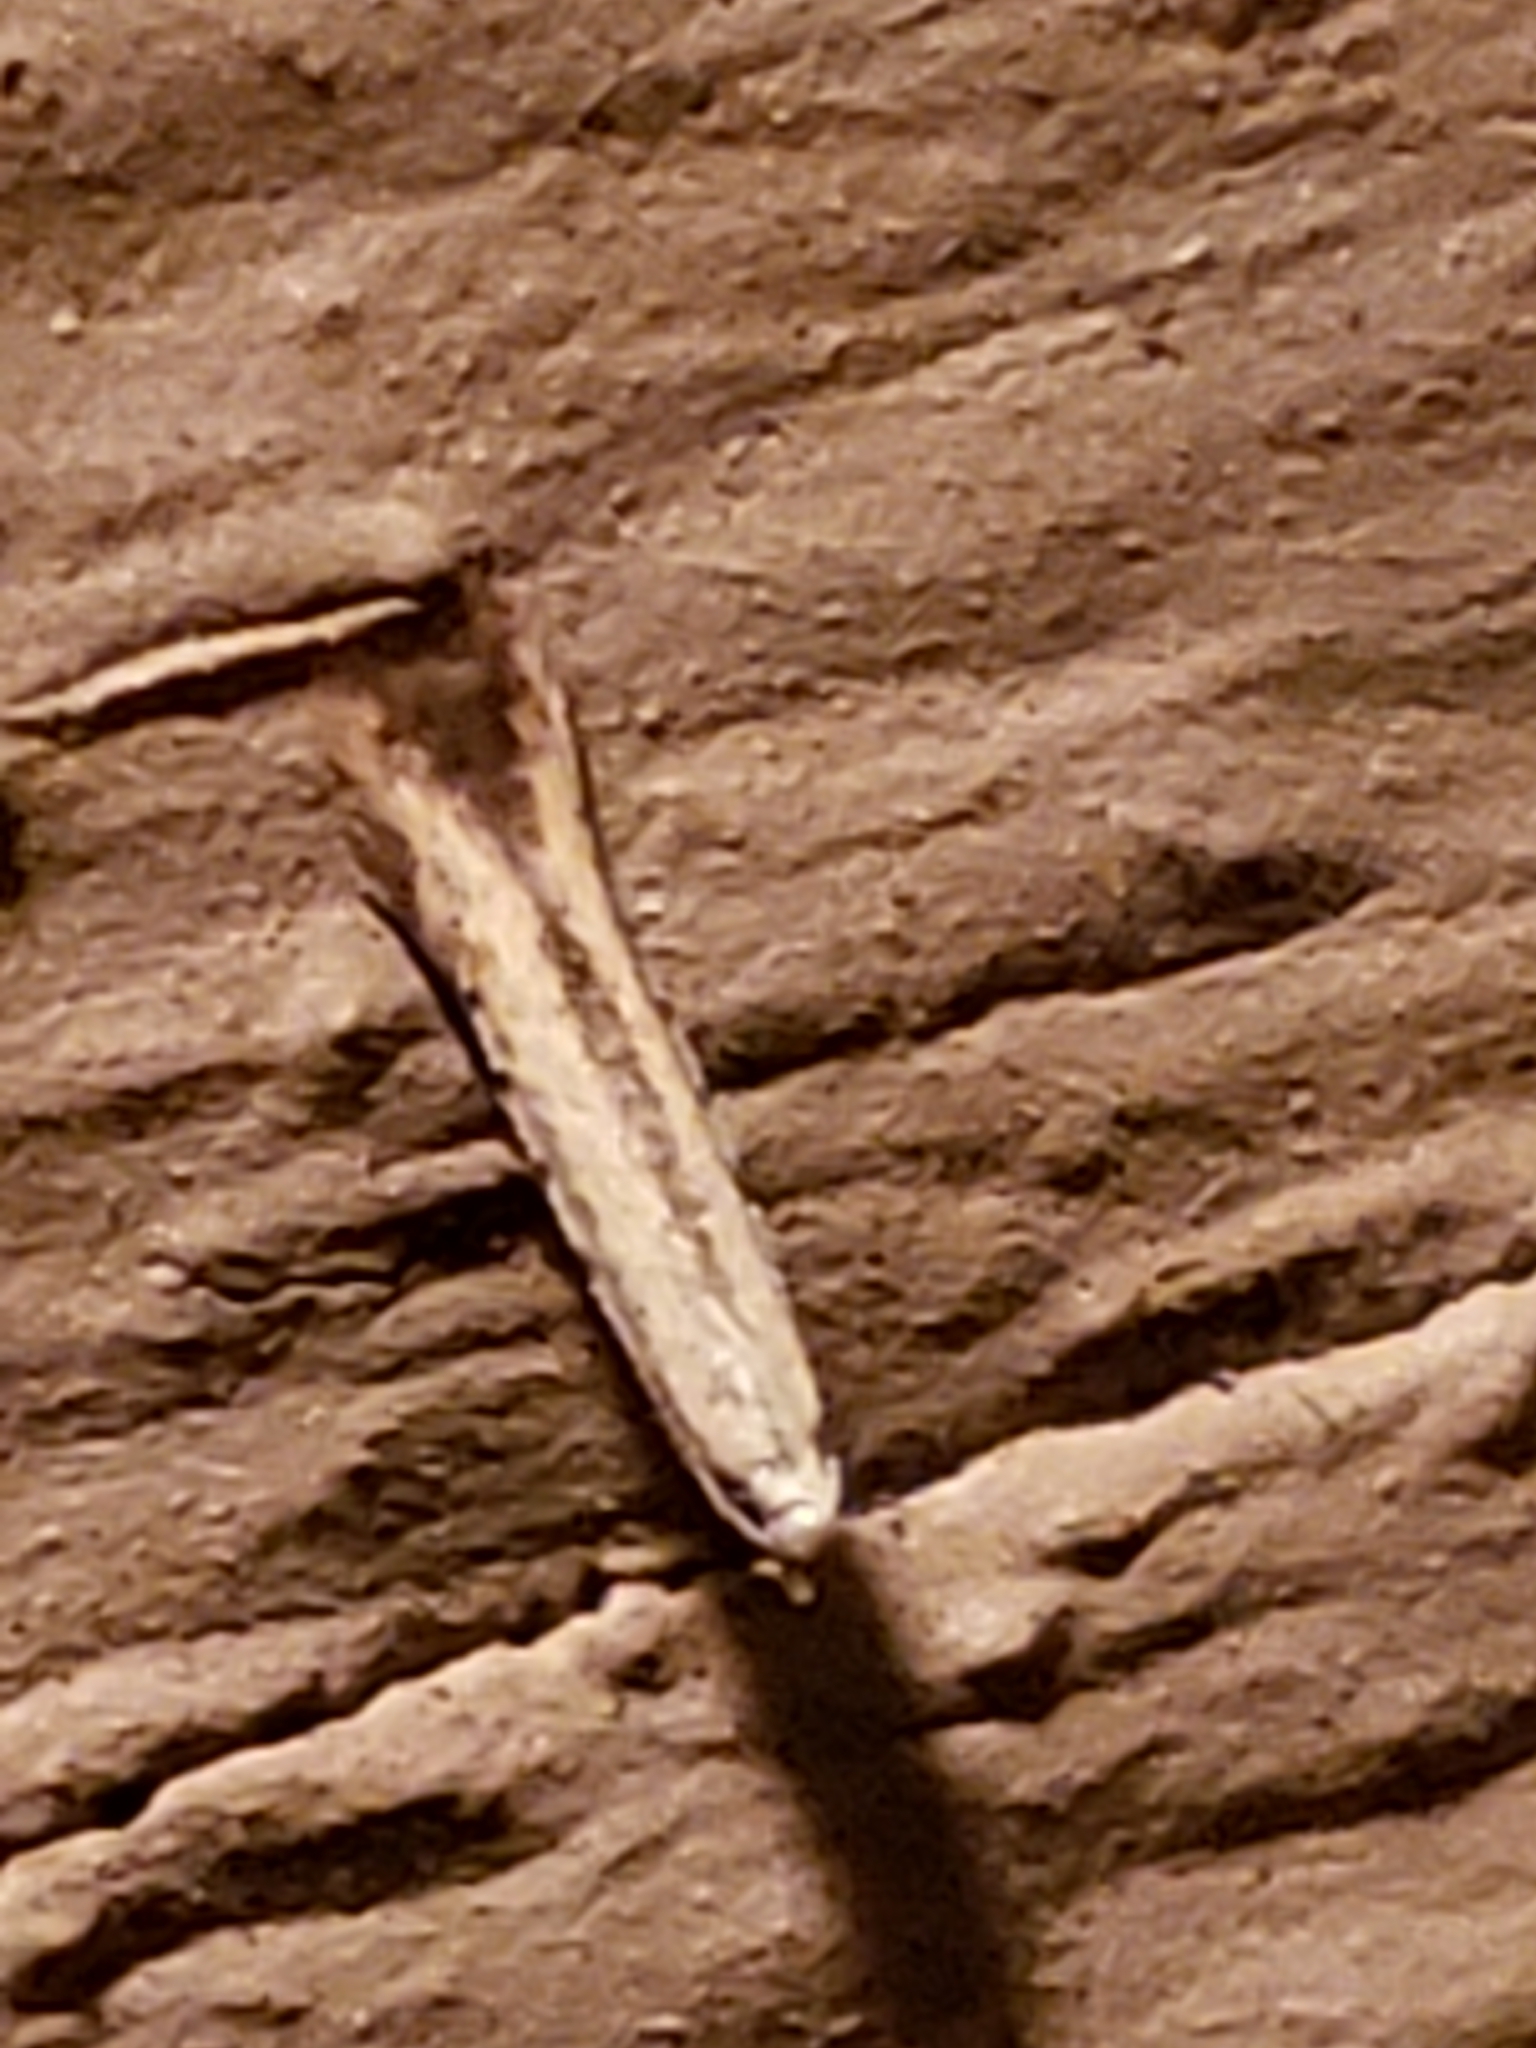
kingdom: Animalia
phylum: Arthropoda
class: Insecta
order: Lepidoptera
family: Gelechiidae
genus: Stereomita
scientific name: Stereomita andropogonis
